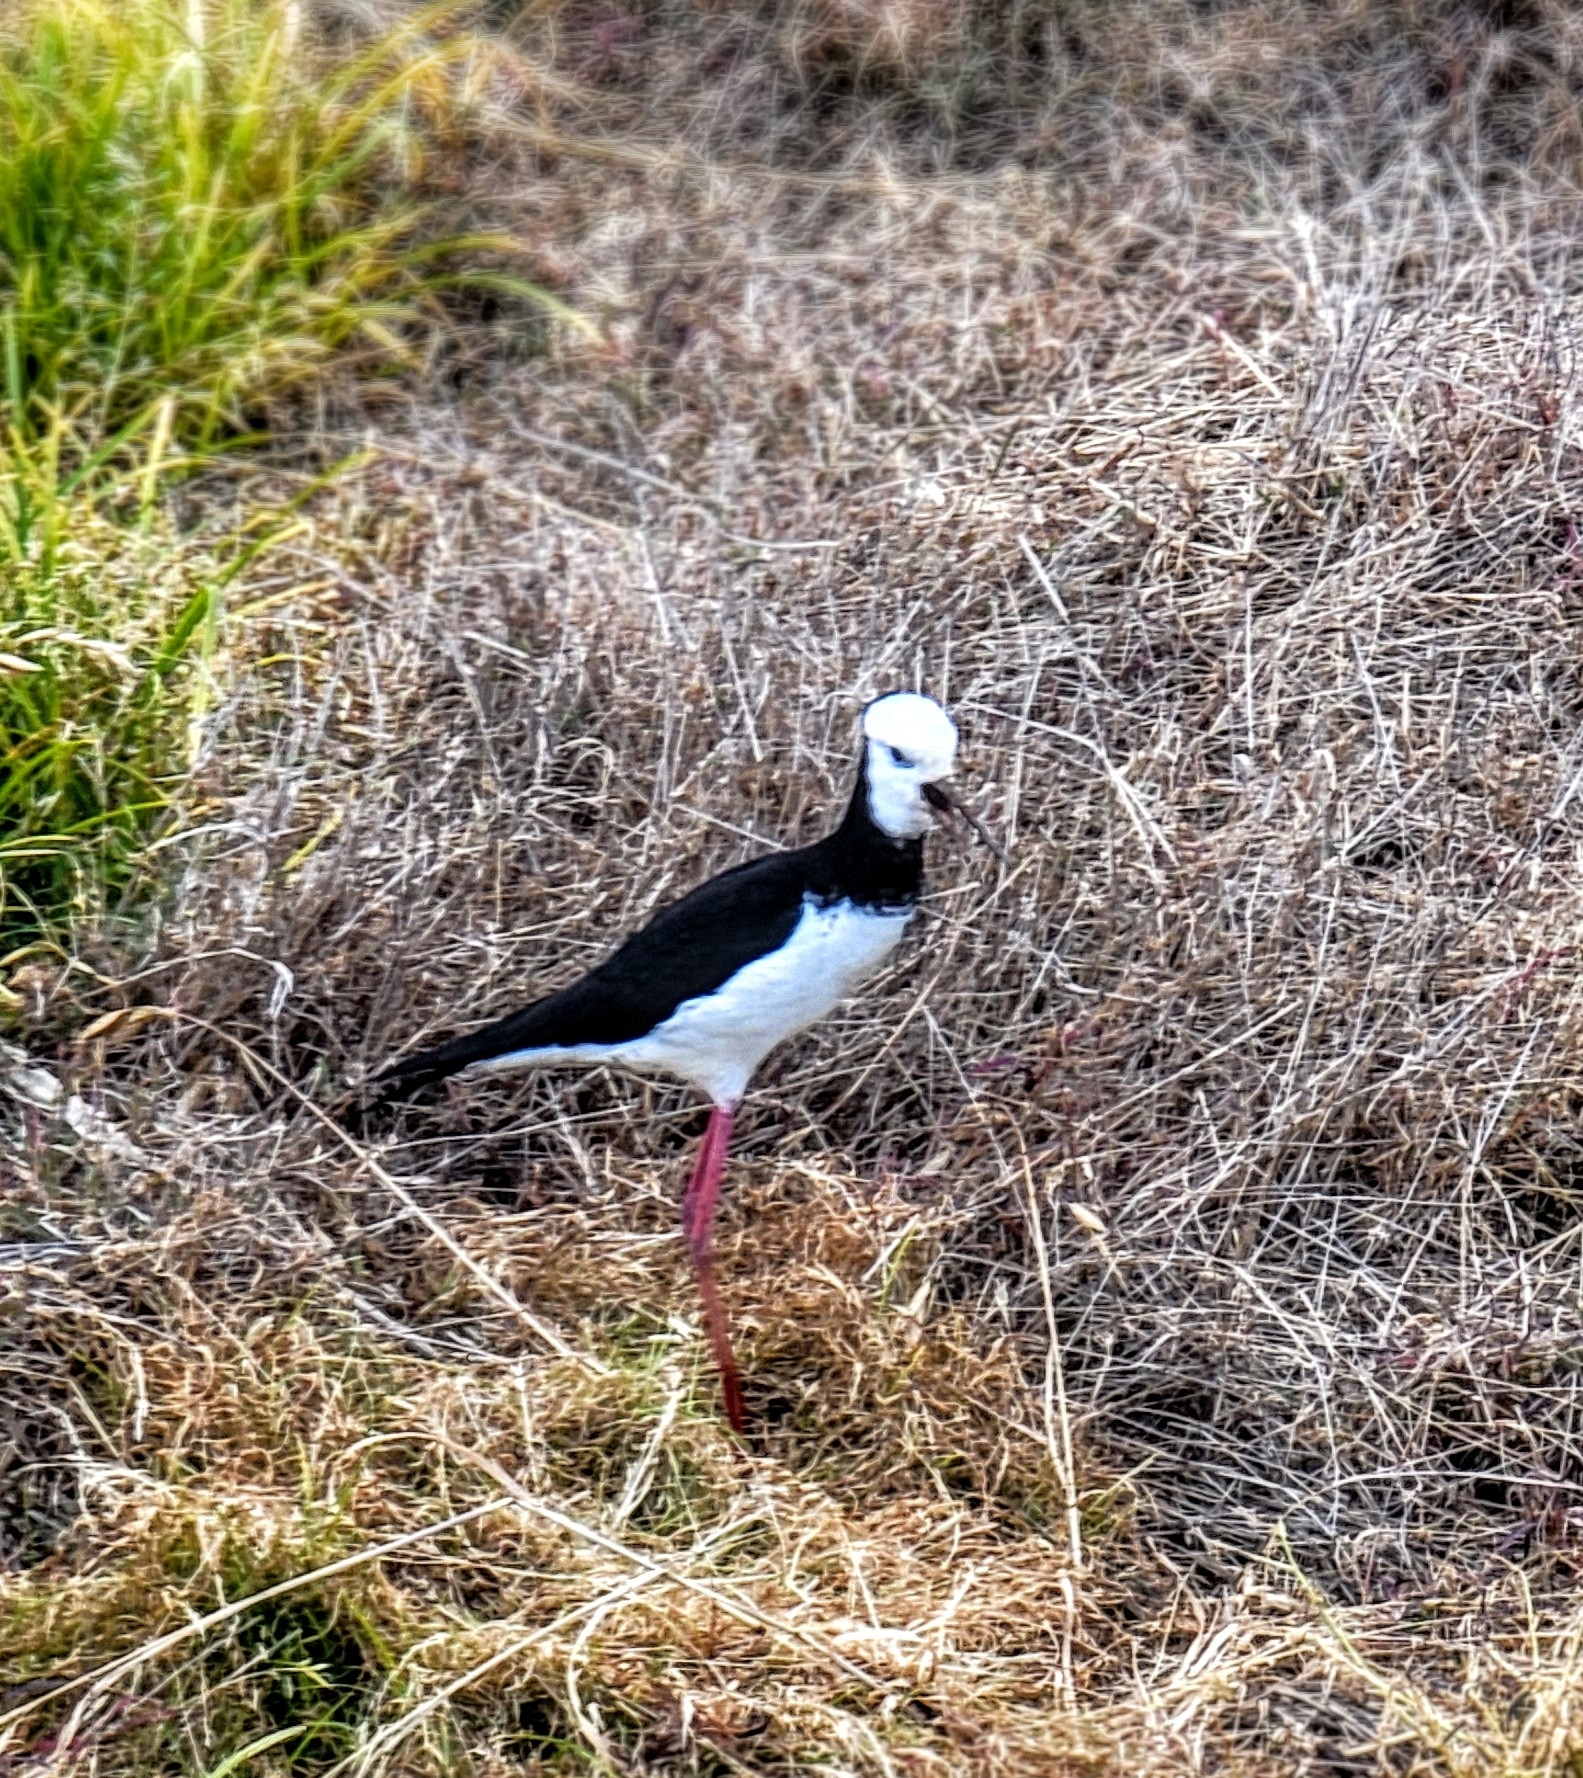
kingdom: Animalia
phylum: Chordata
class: Aves
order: Charadriiformes
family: Recurvirostridae
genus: Himantopus
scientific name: Himantopus
